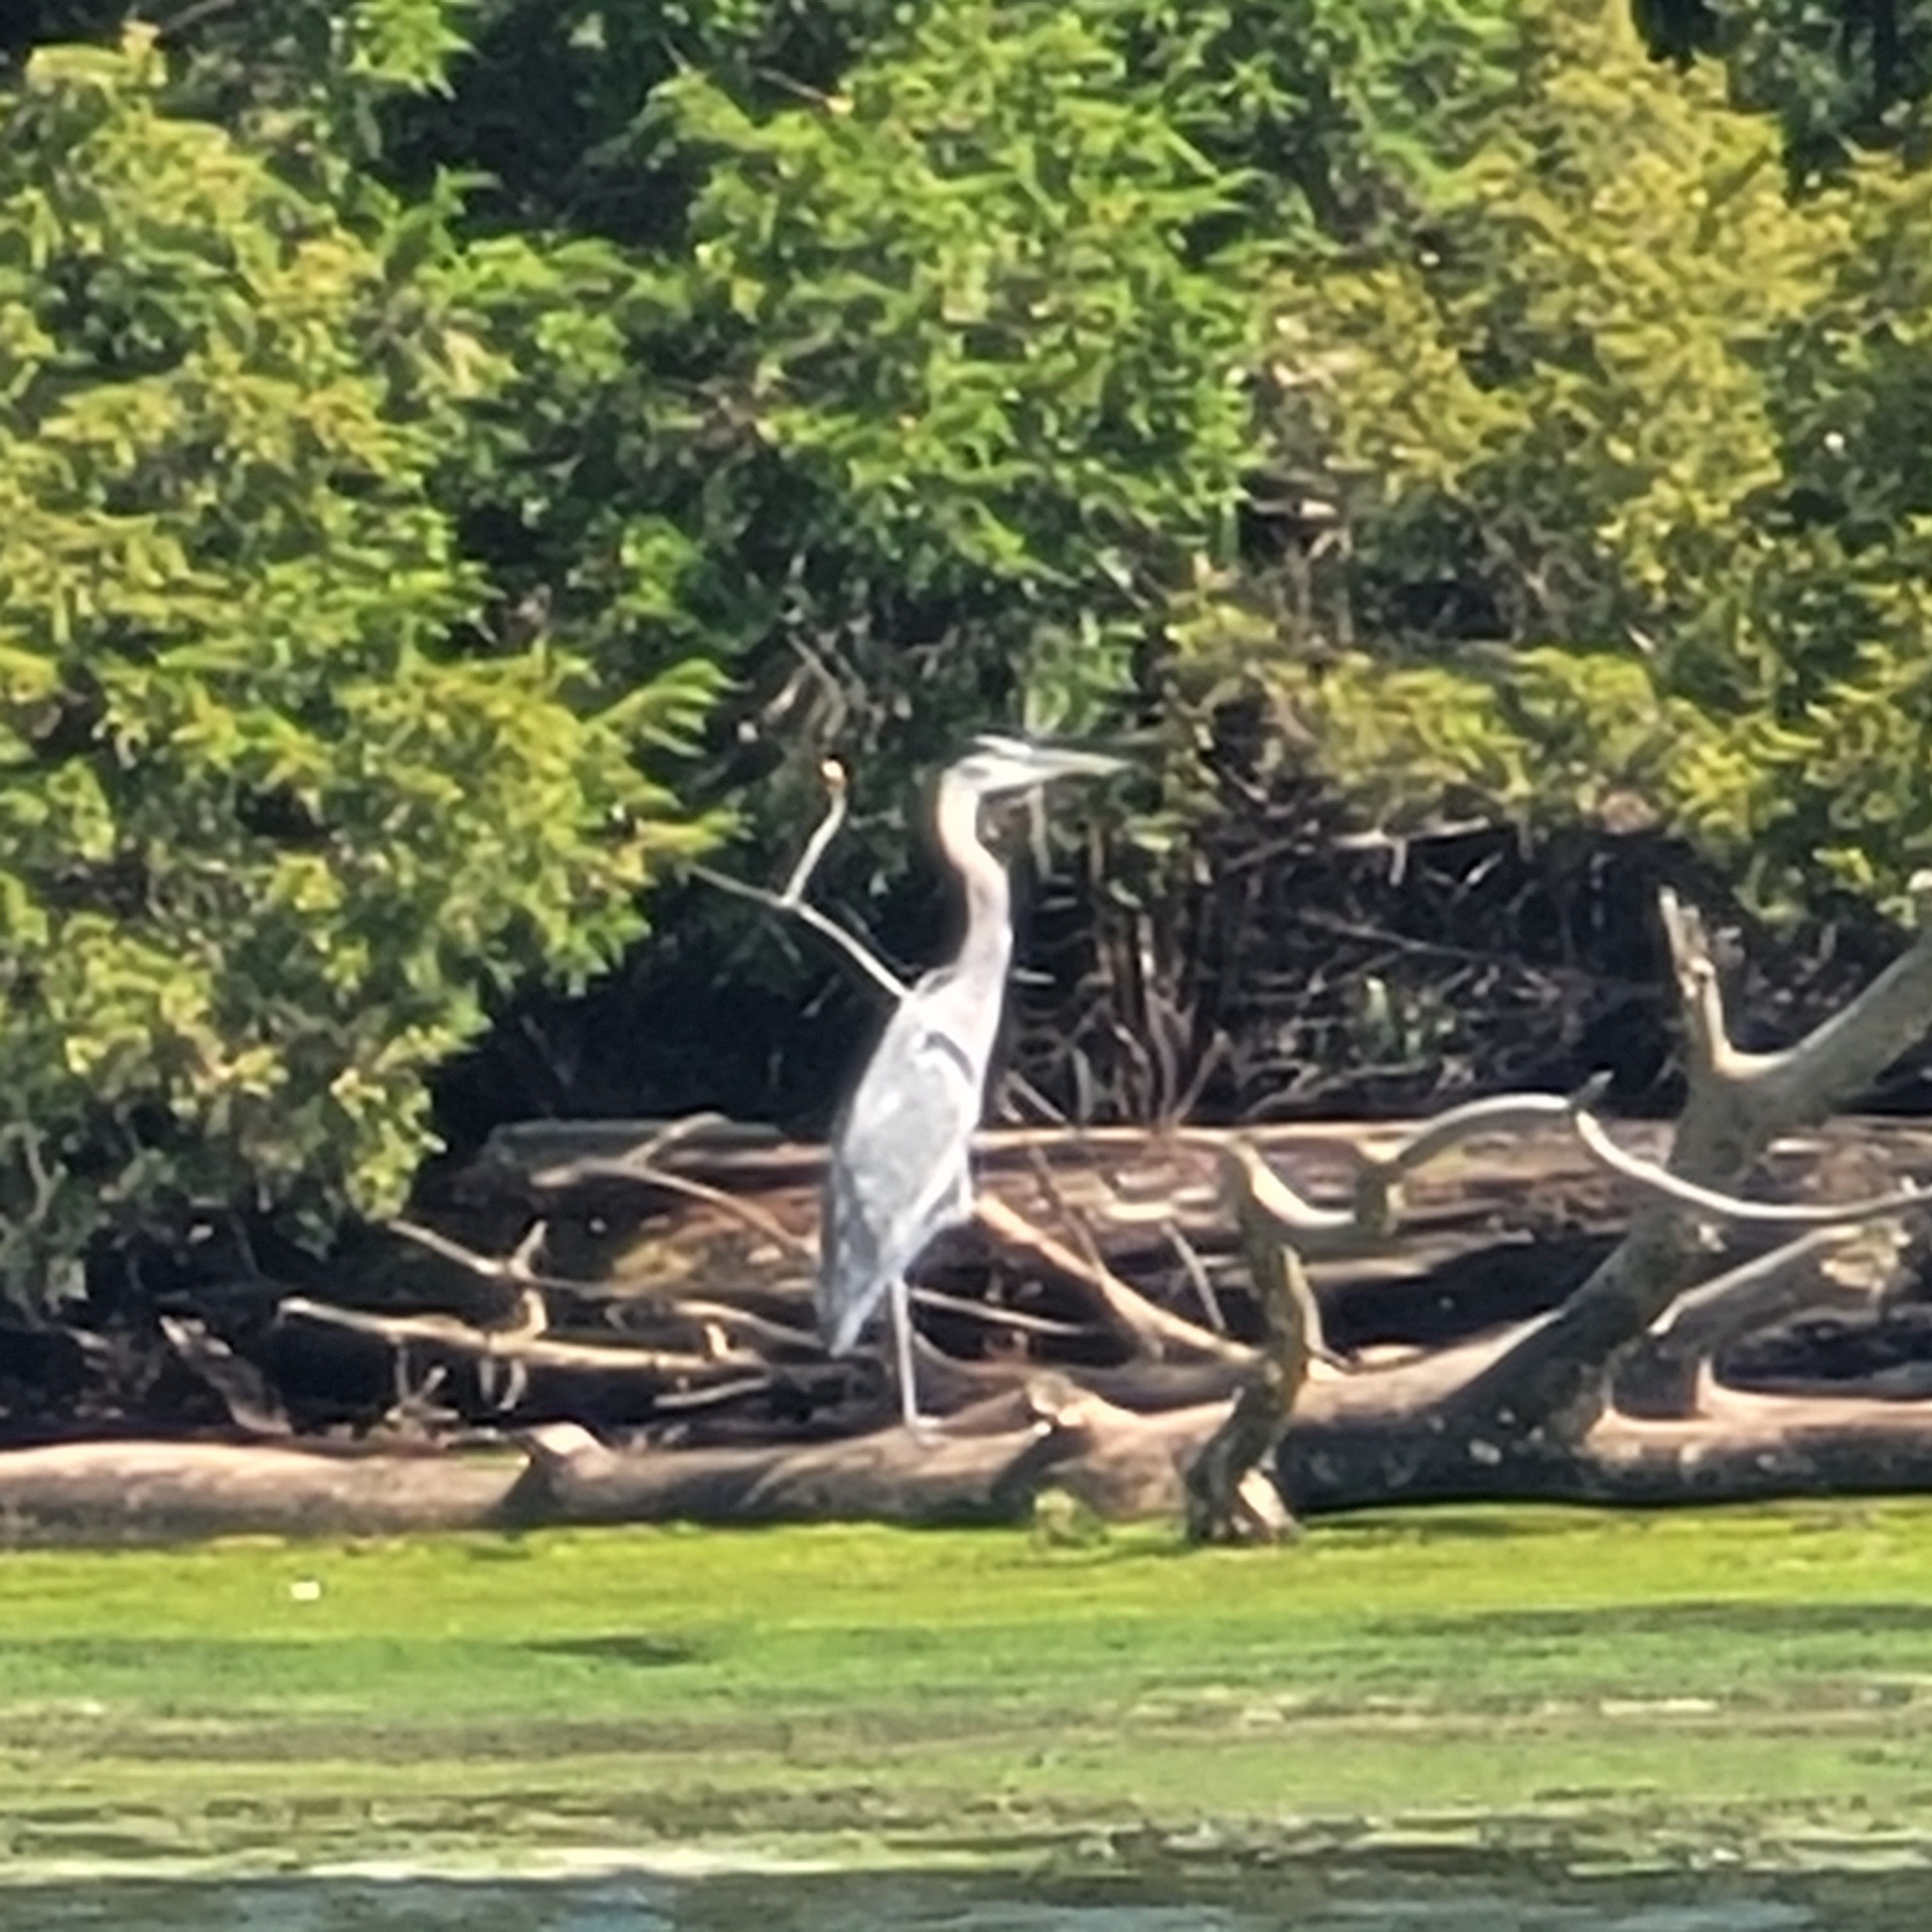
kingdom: Animalia
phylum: Chordata
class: Aves
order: Pelecaniformes
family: Ardeidae
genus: Ardea
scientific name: Ardea herodias
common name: Great blue heron
